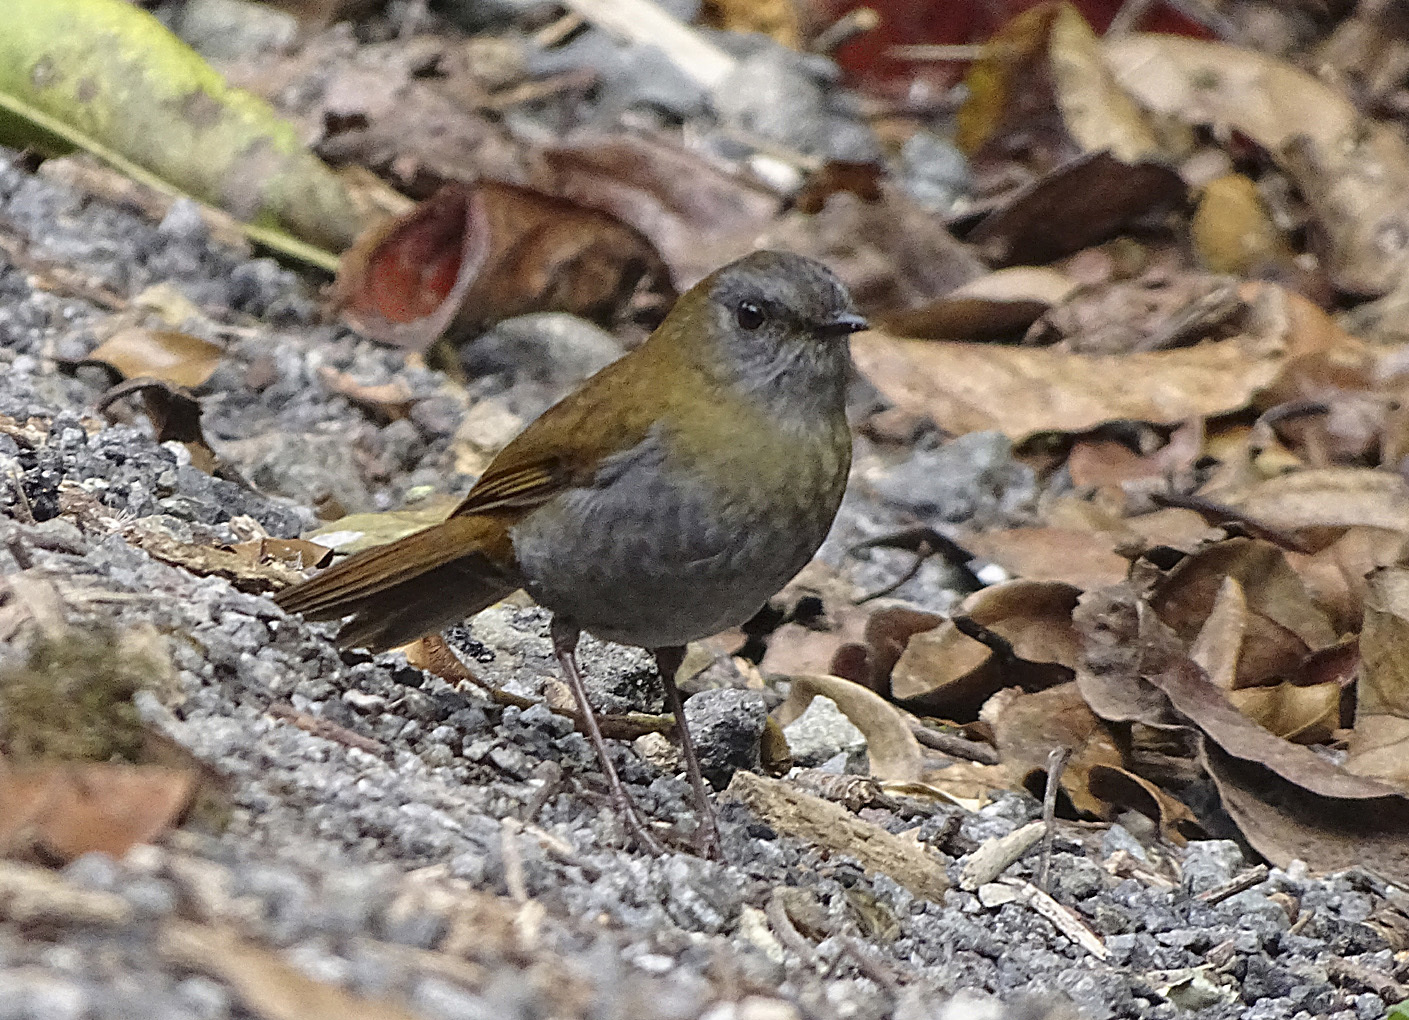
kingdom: Animalia
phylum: Chordata
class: Aves
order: Passeriformes
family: Turdidae
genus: Catharus
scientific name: Catharus gracilirostris
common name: Black-billed nightingale-thrush
